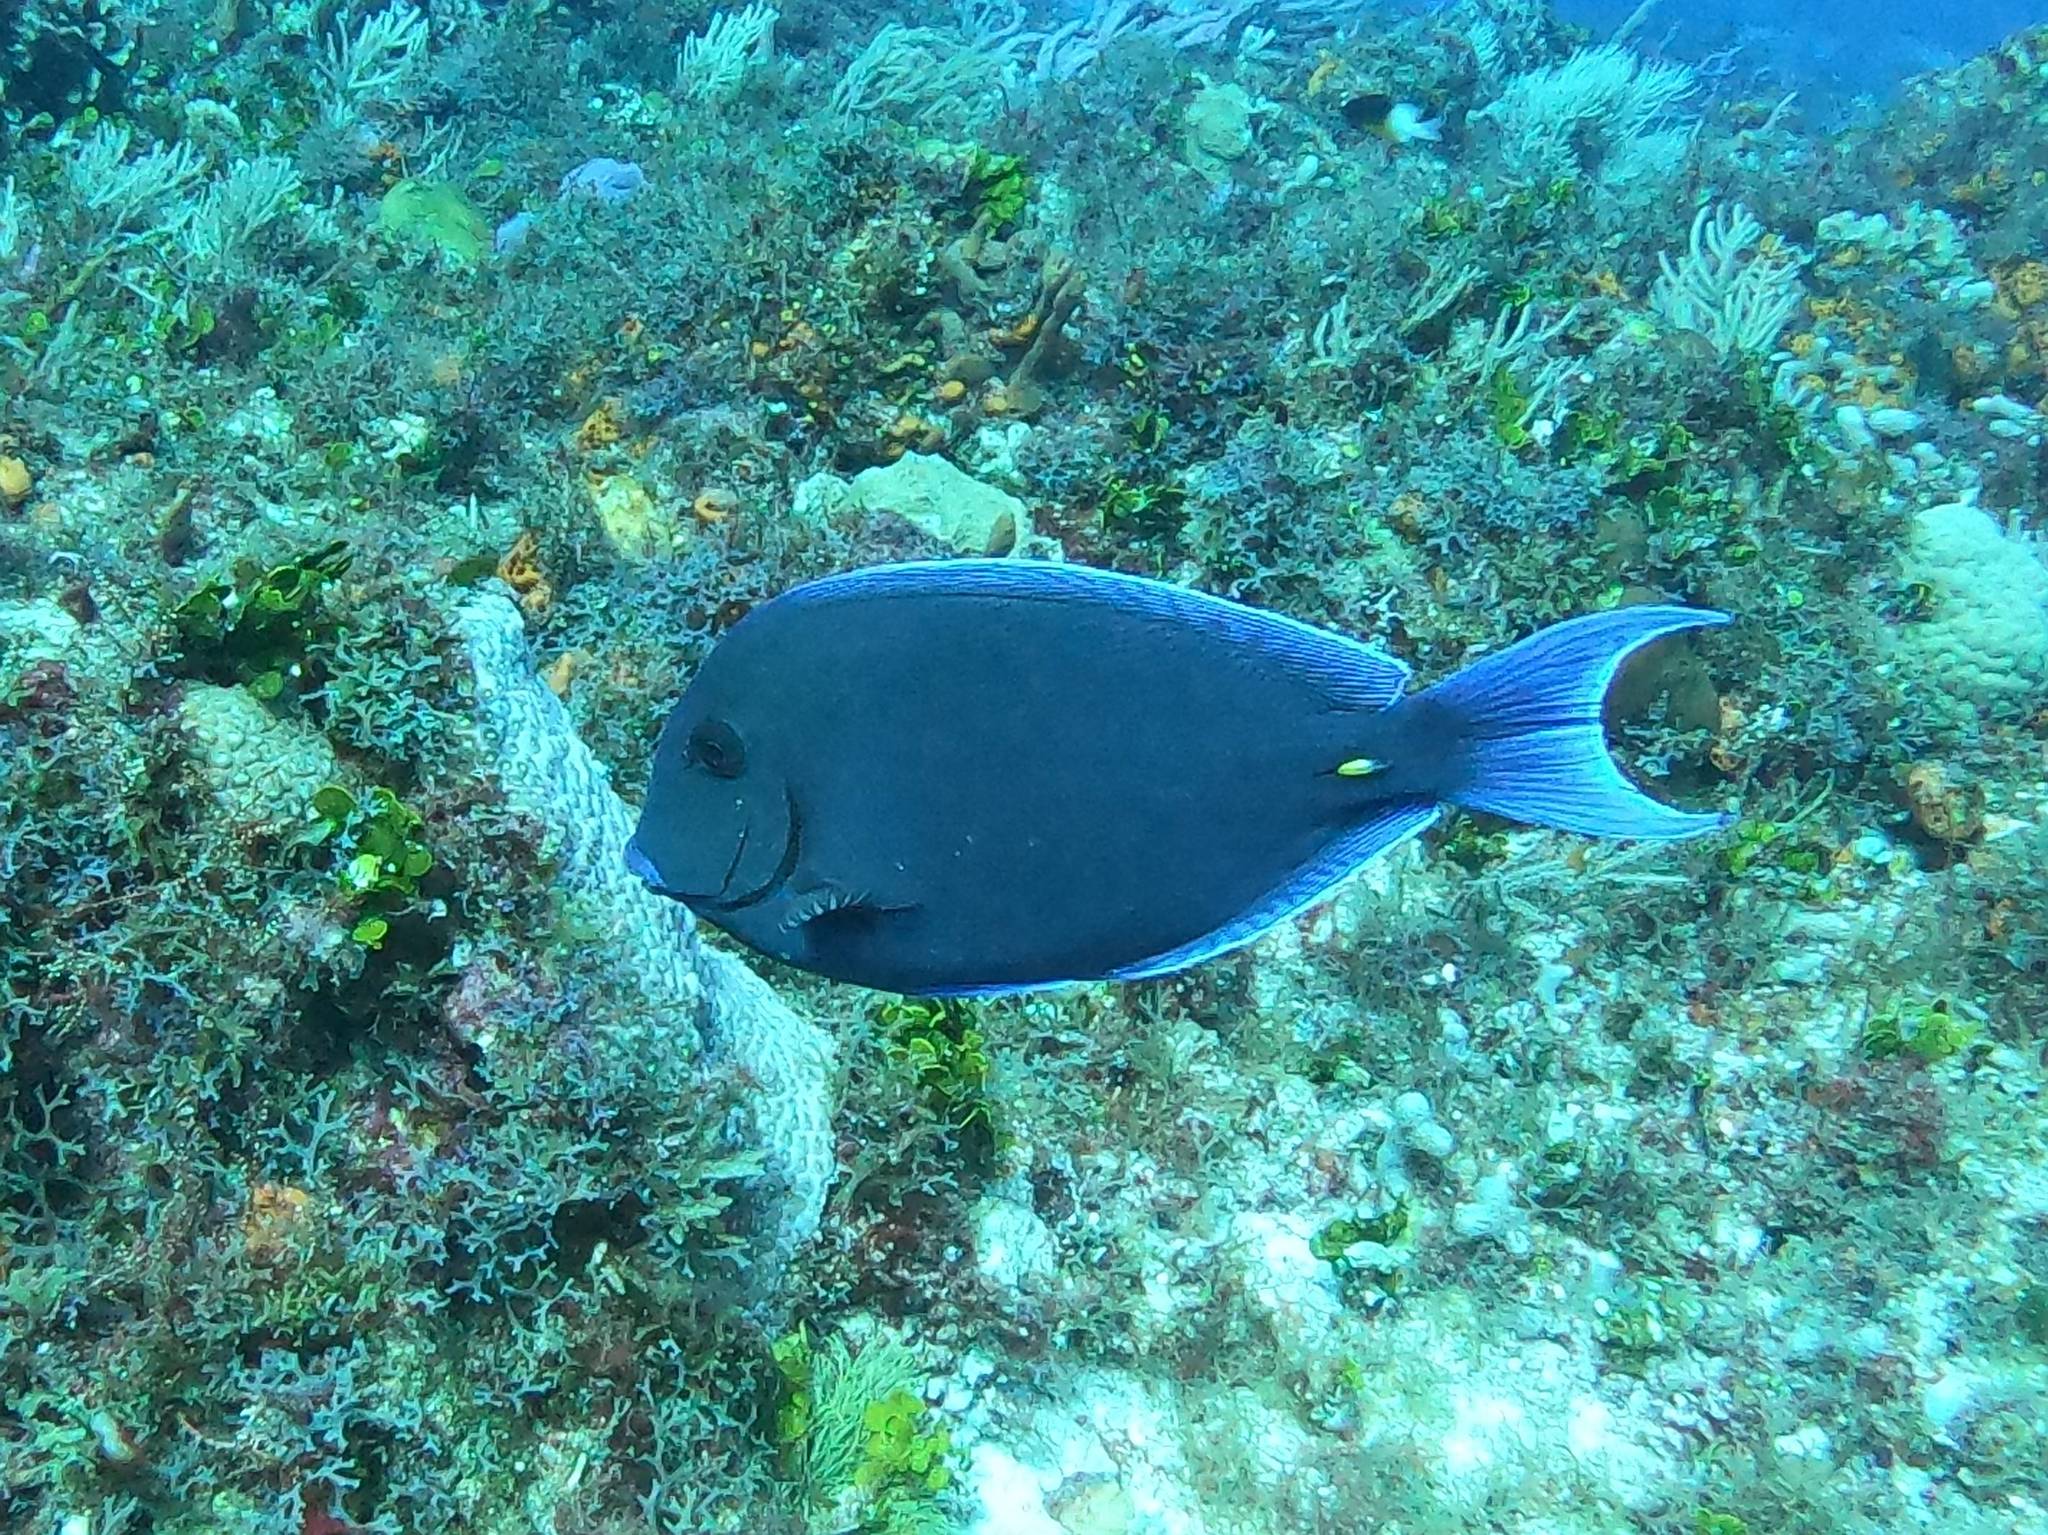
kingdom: Animalia
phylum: Chordata
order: Perciformes
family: Acanthuridae
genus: Acanthurus
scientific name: Acanthurus coeruleus
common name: Blue tang
